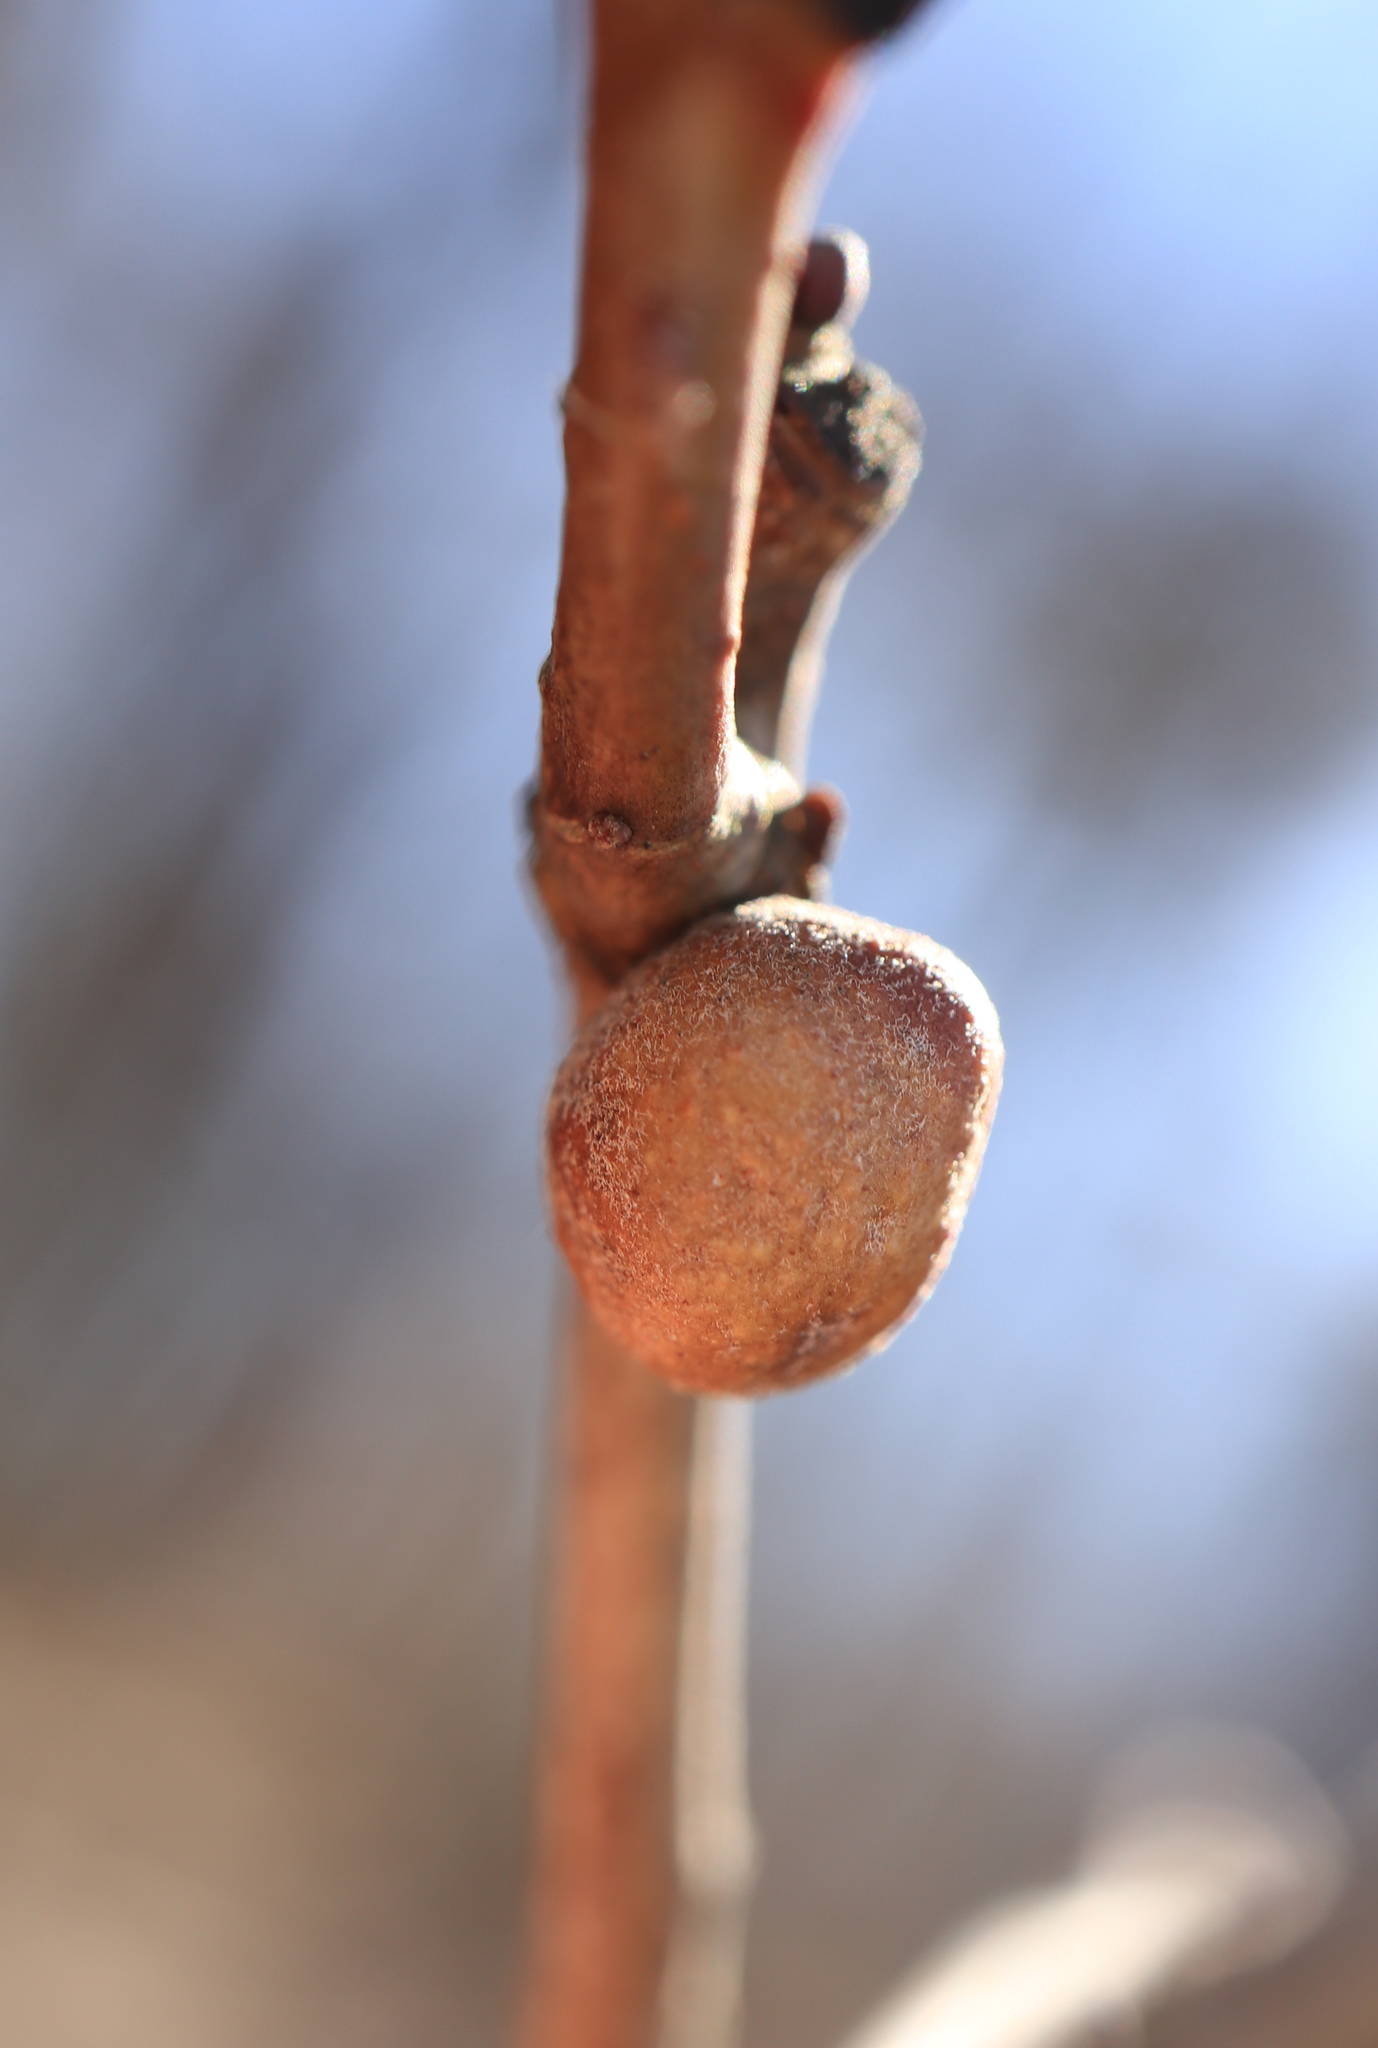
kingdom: Animalia
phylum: Arthropoda
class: Insecta
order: Hymenoptera
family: Cynipidae
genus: Disholcaspis
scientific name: Disholcaspis quercusglobulus
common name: Round bullet gall wasp
